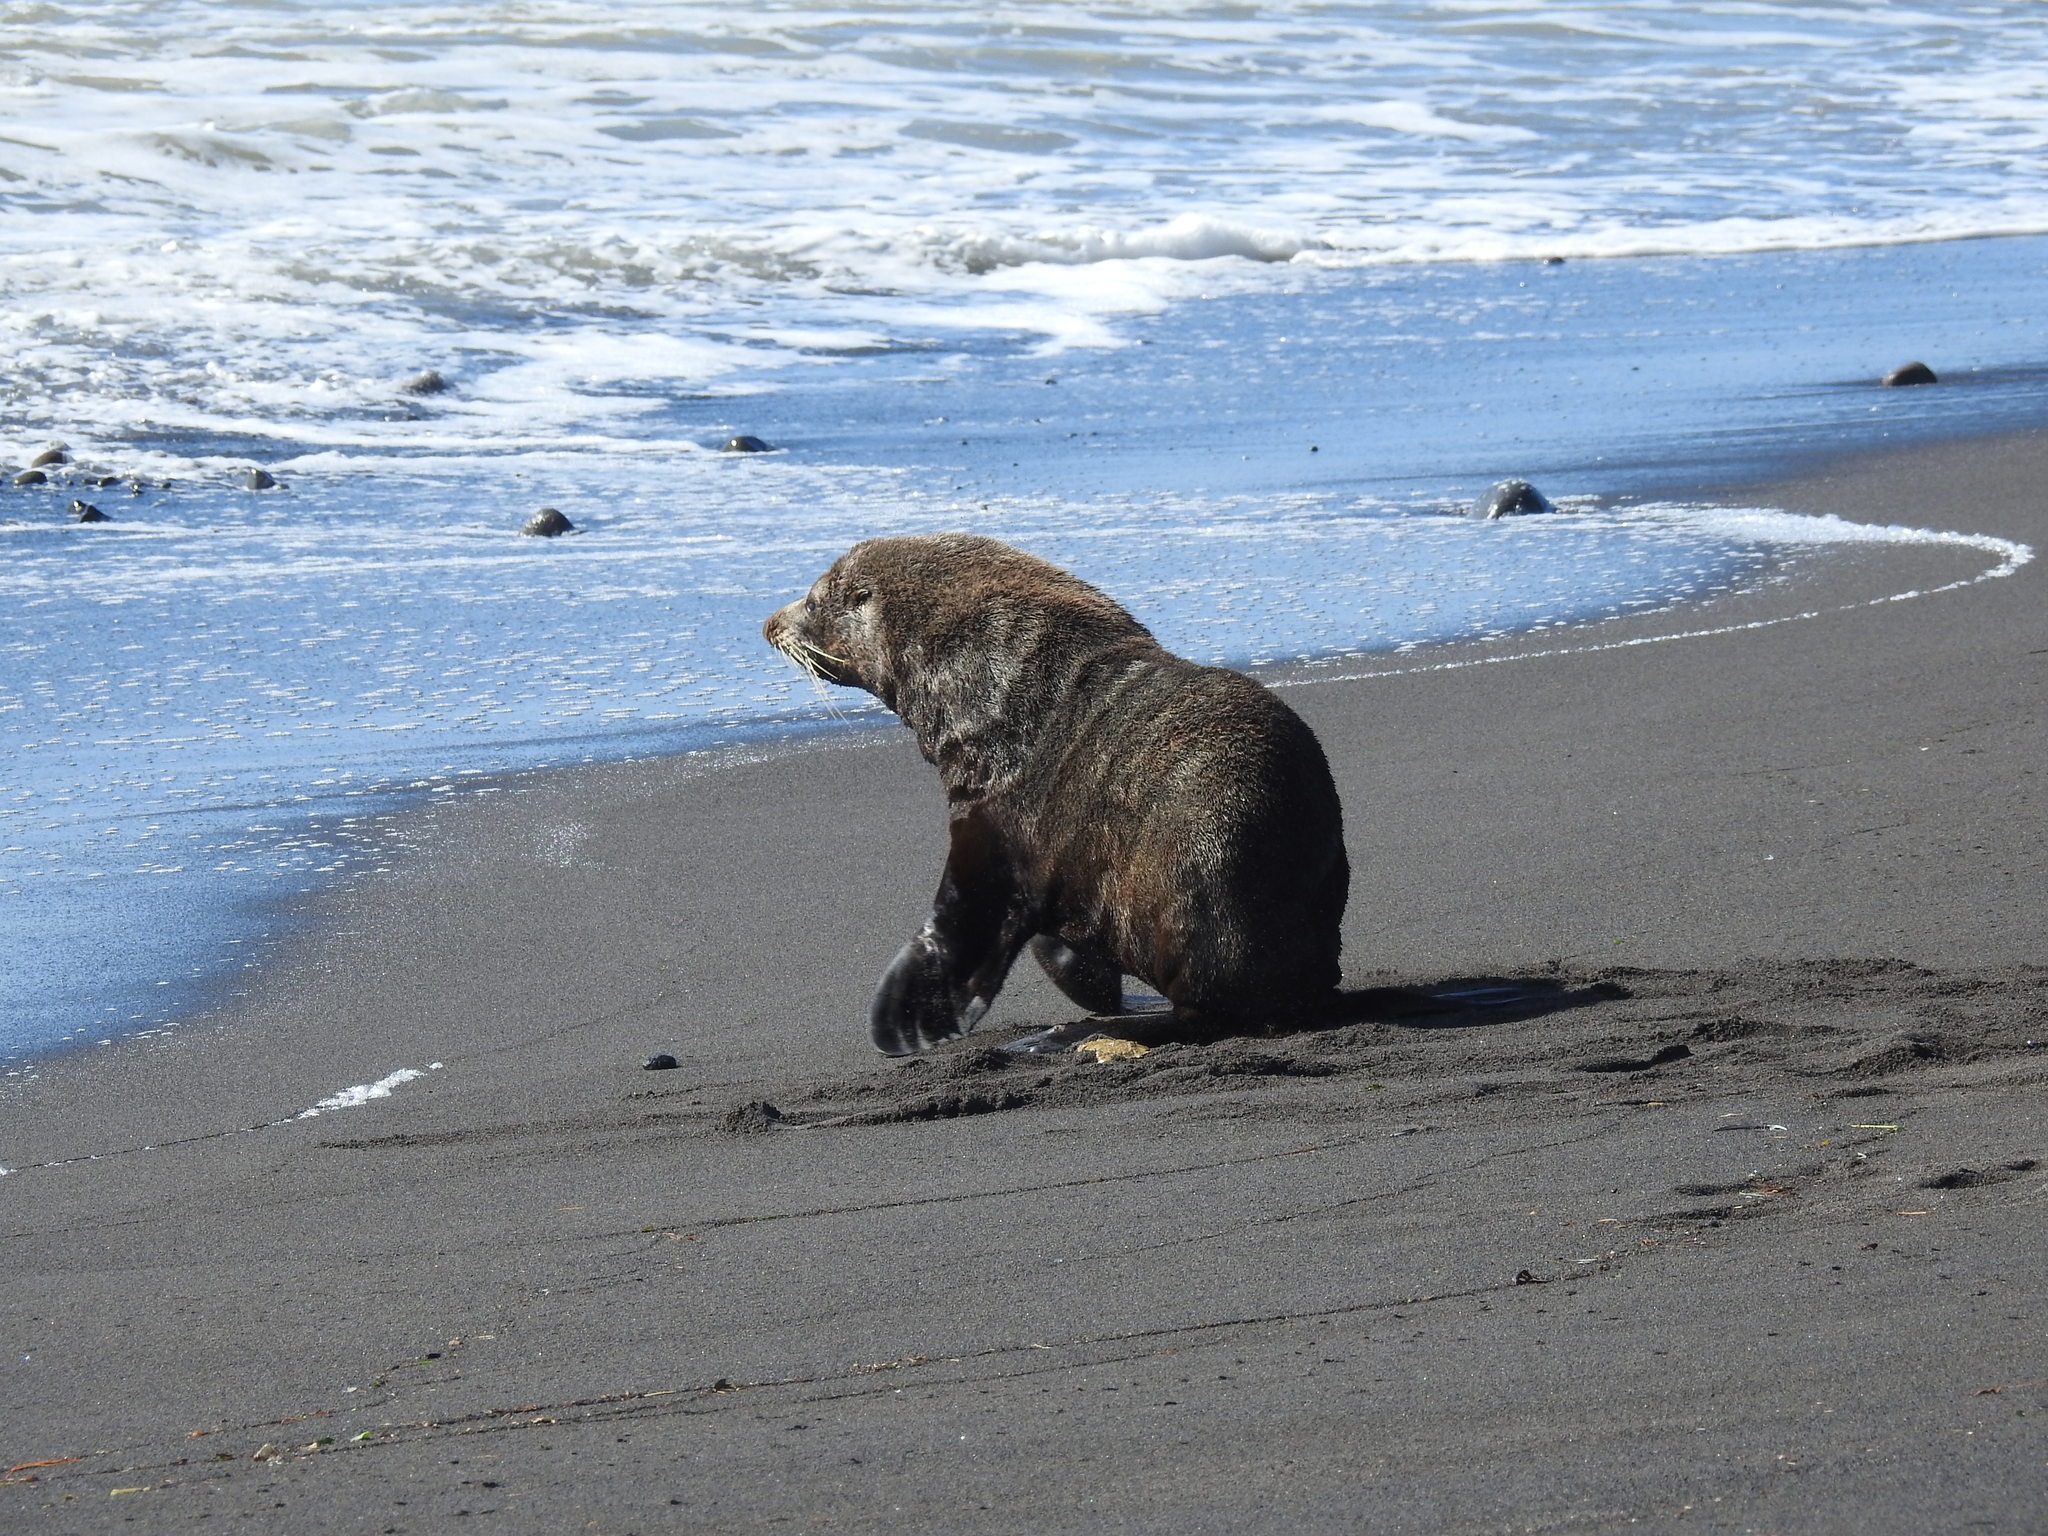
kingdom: Animalia
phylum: Chordata
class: Mammalia
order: Carnivora
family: Otariidae
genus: Arctocephalus
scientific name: Arctocephalus forsteri
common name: New zealand fur seal
